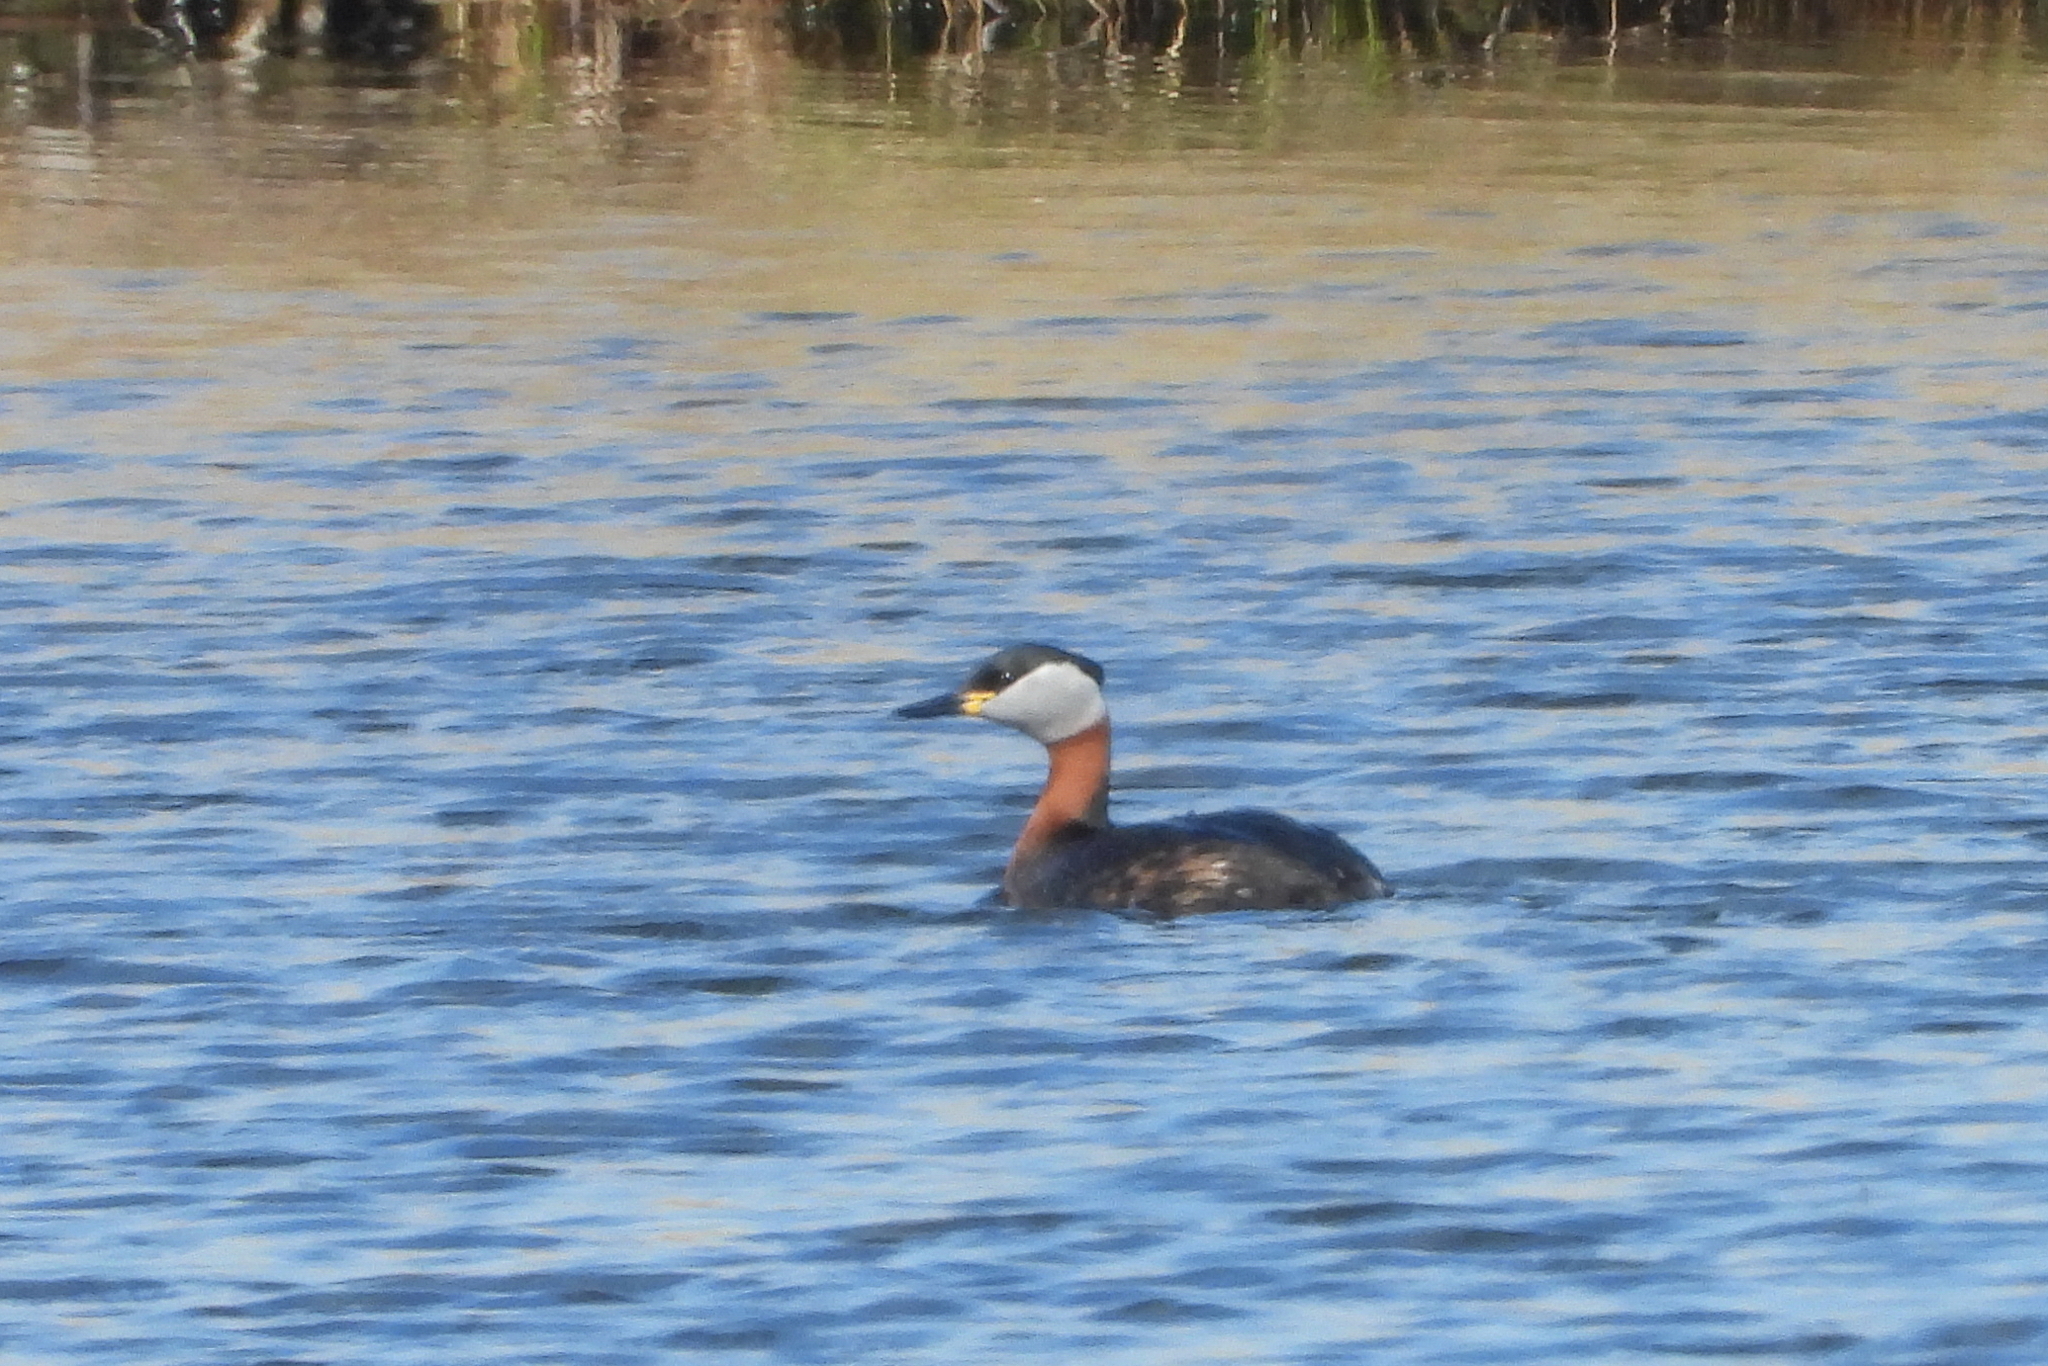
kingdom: Animalia
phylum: Chordata
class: Aves
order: Podicipediformes
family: Podicipedidae
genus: Podiceps
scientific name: Podiceps grisegena
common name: Red-necked grebe
